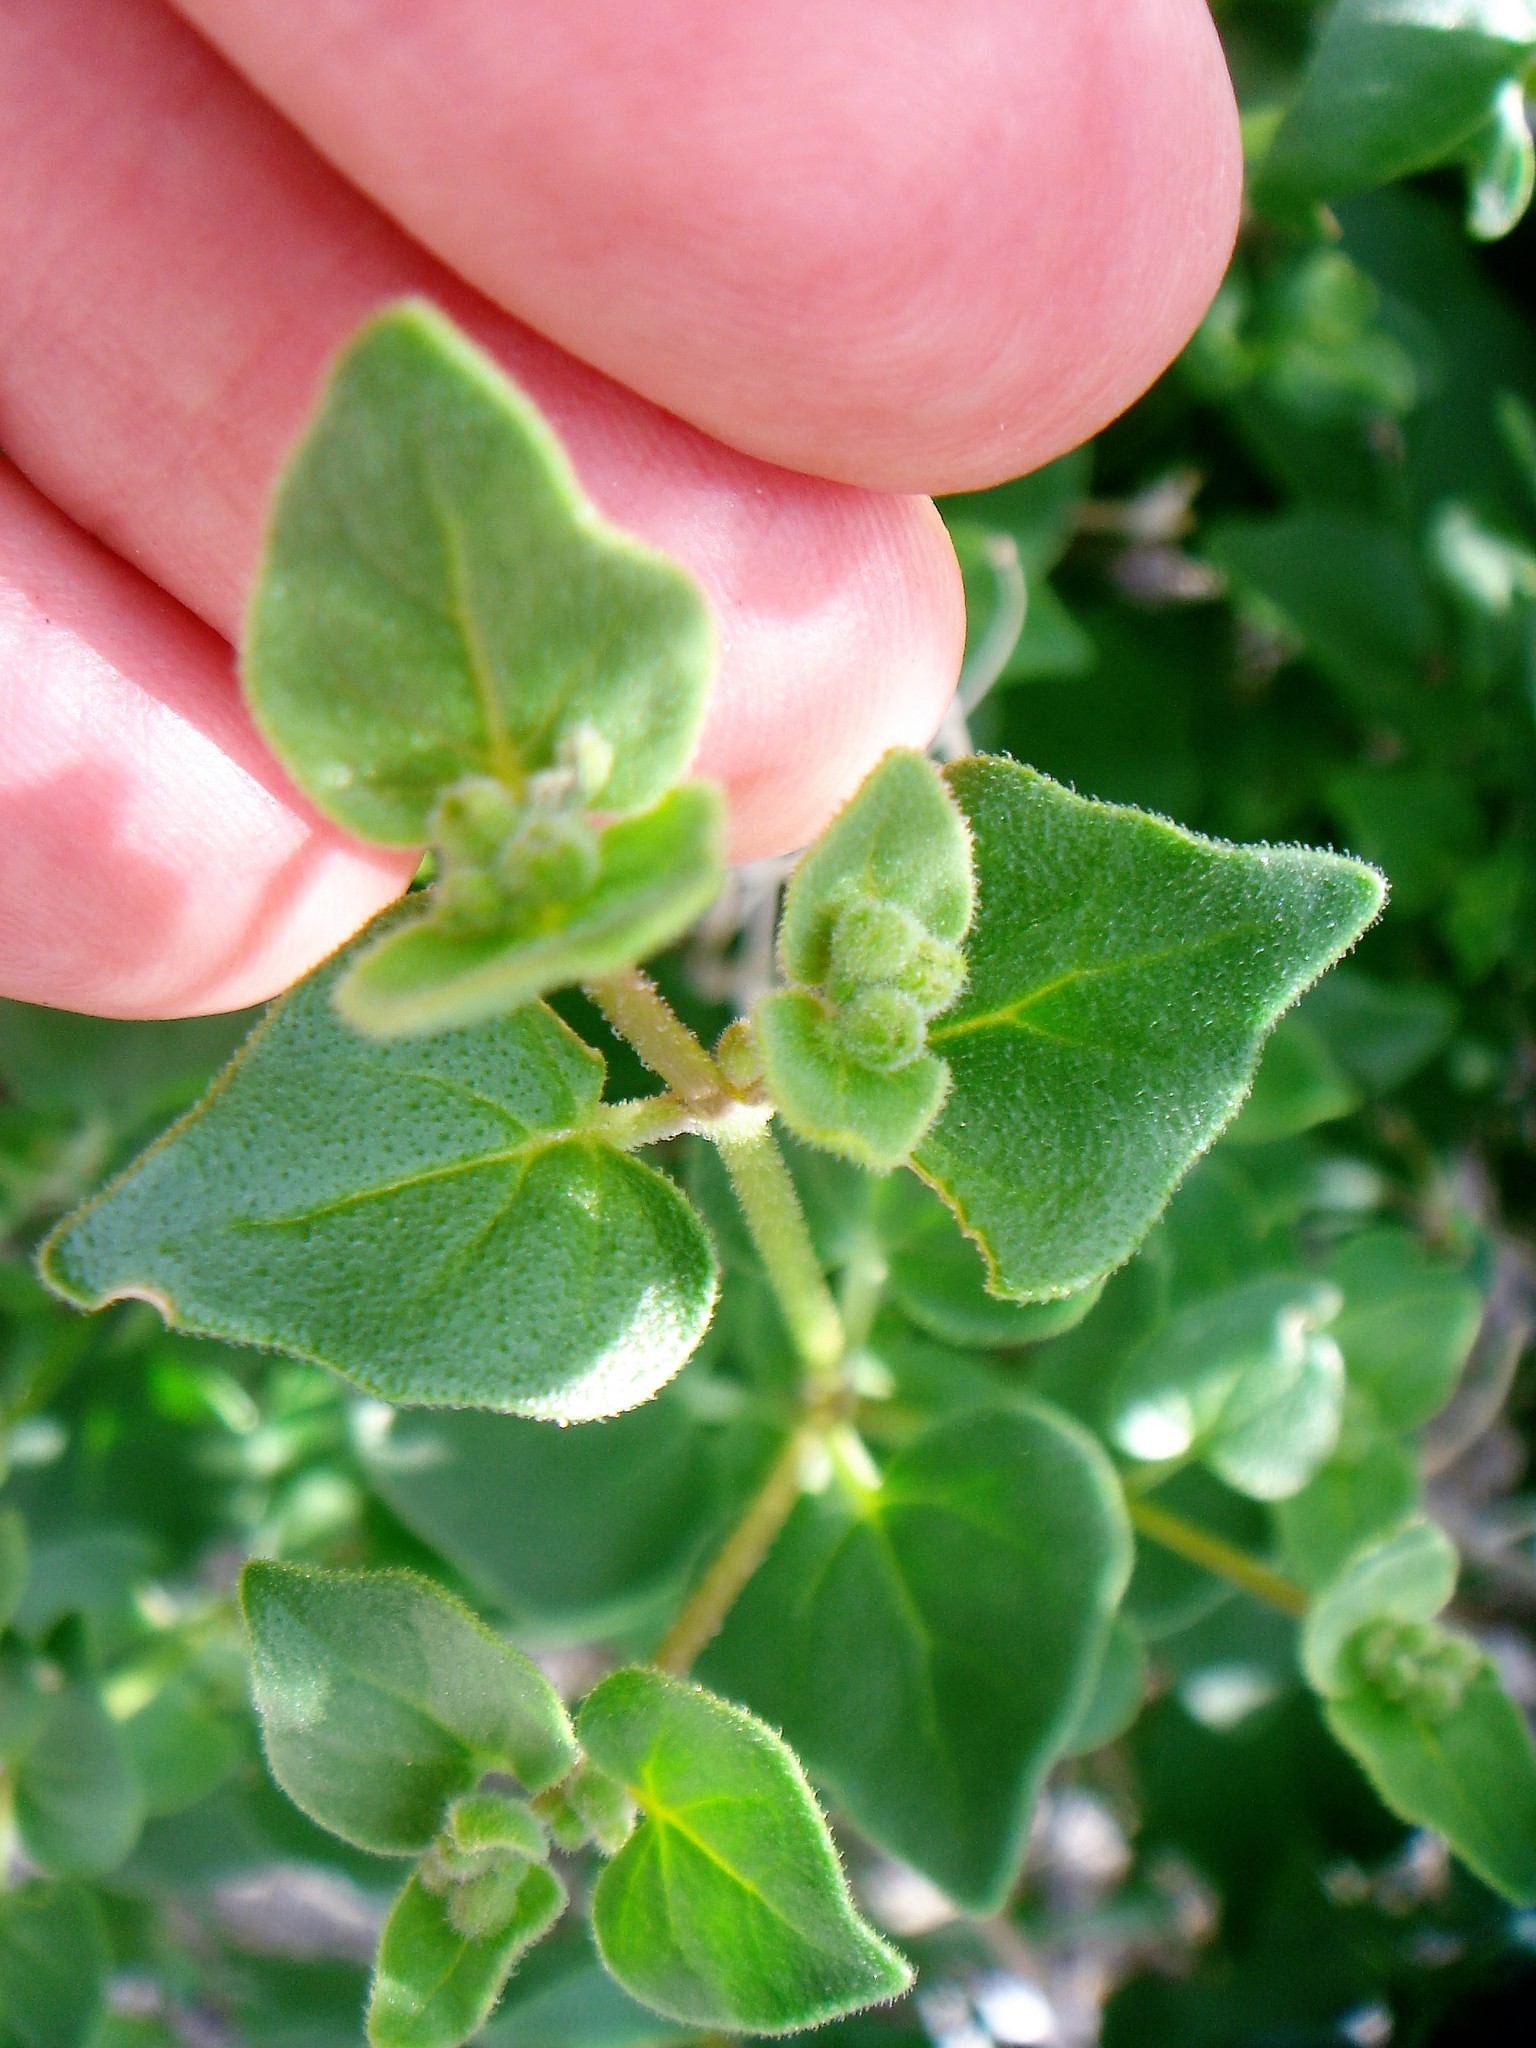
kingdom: Plantae
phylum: Tracheophyta
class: Magnoliopsida
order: Caryophyllales
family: Nyctaginaceae
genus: Mirabilis
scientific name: Mirabilis laevis
